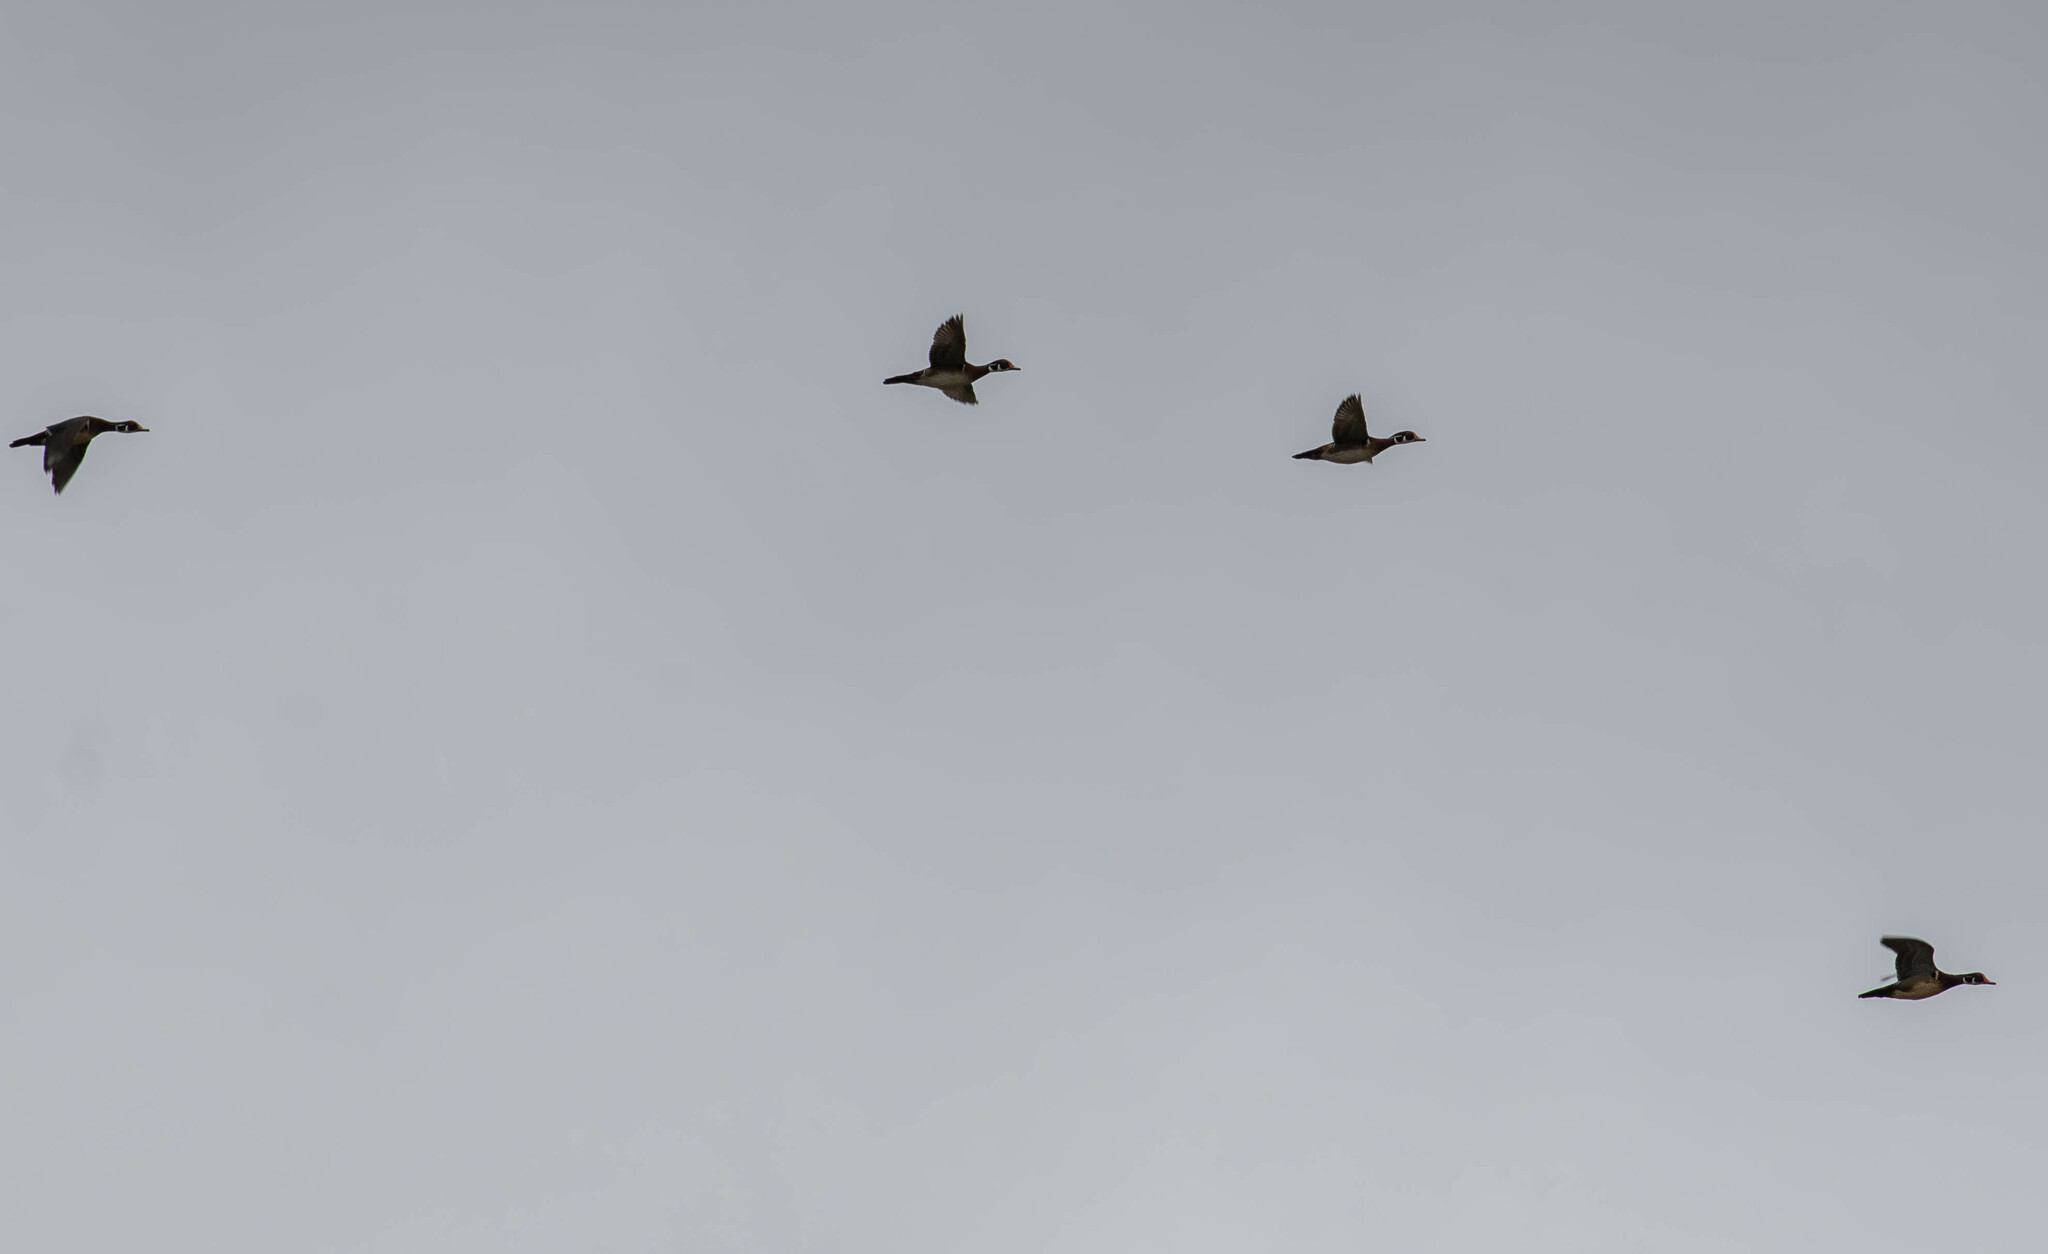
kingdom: Animalia
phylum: Chordata
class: Aves
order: Anseriformes
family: Anatidae
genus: Aix
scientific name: Aix sponsa
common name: Wood duck
